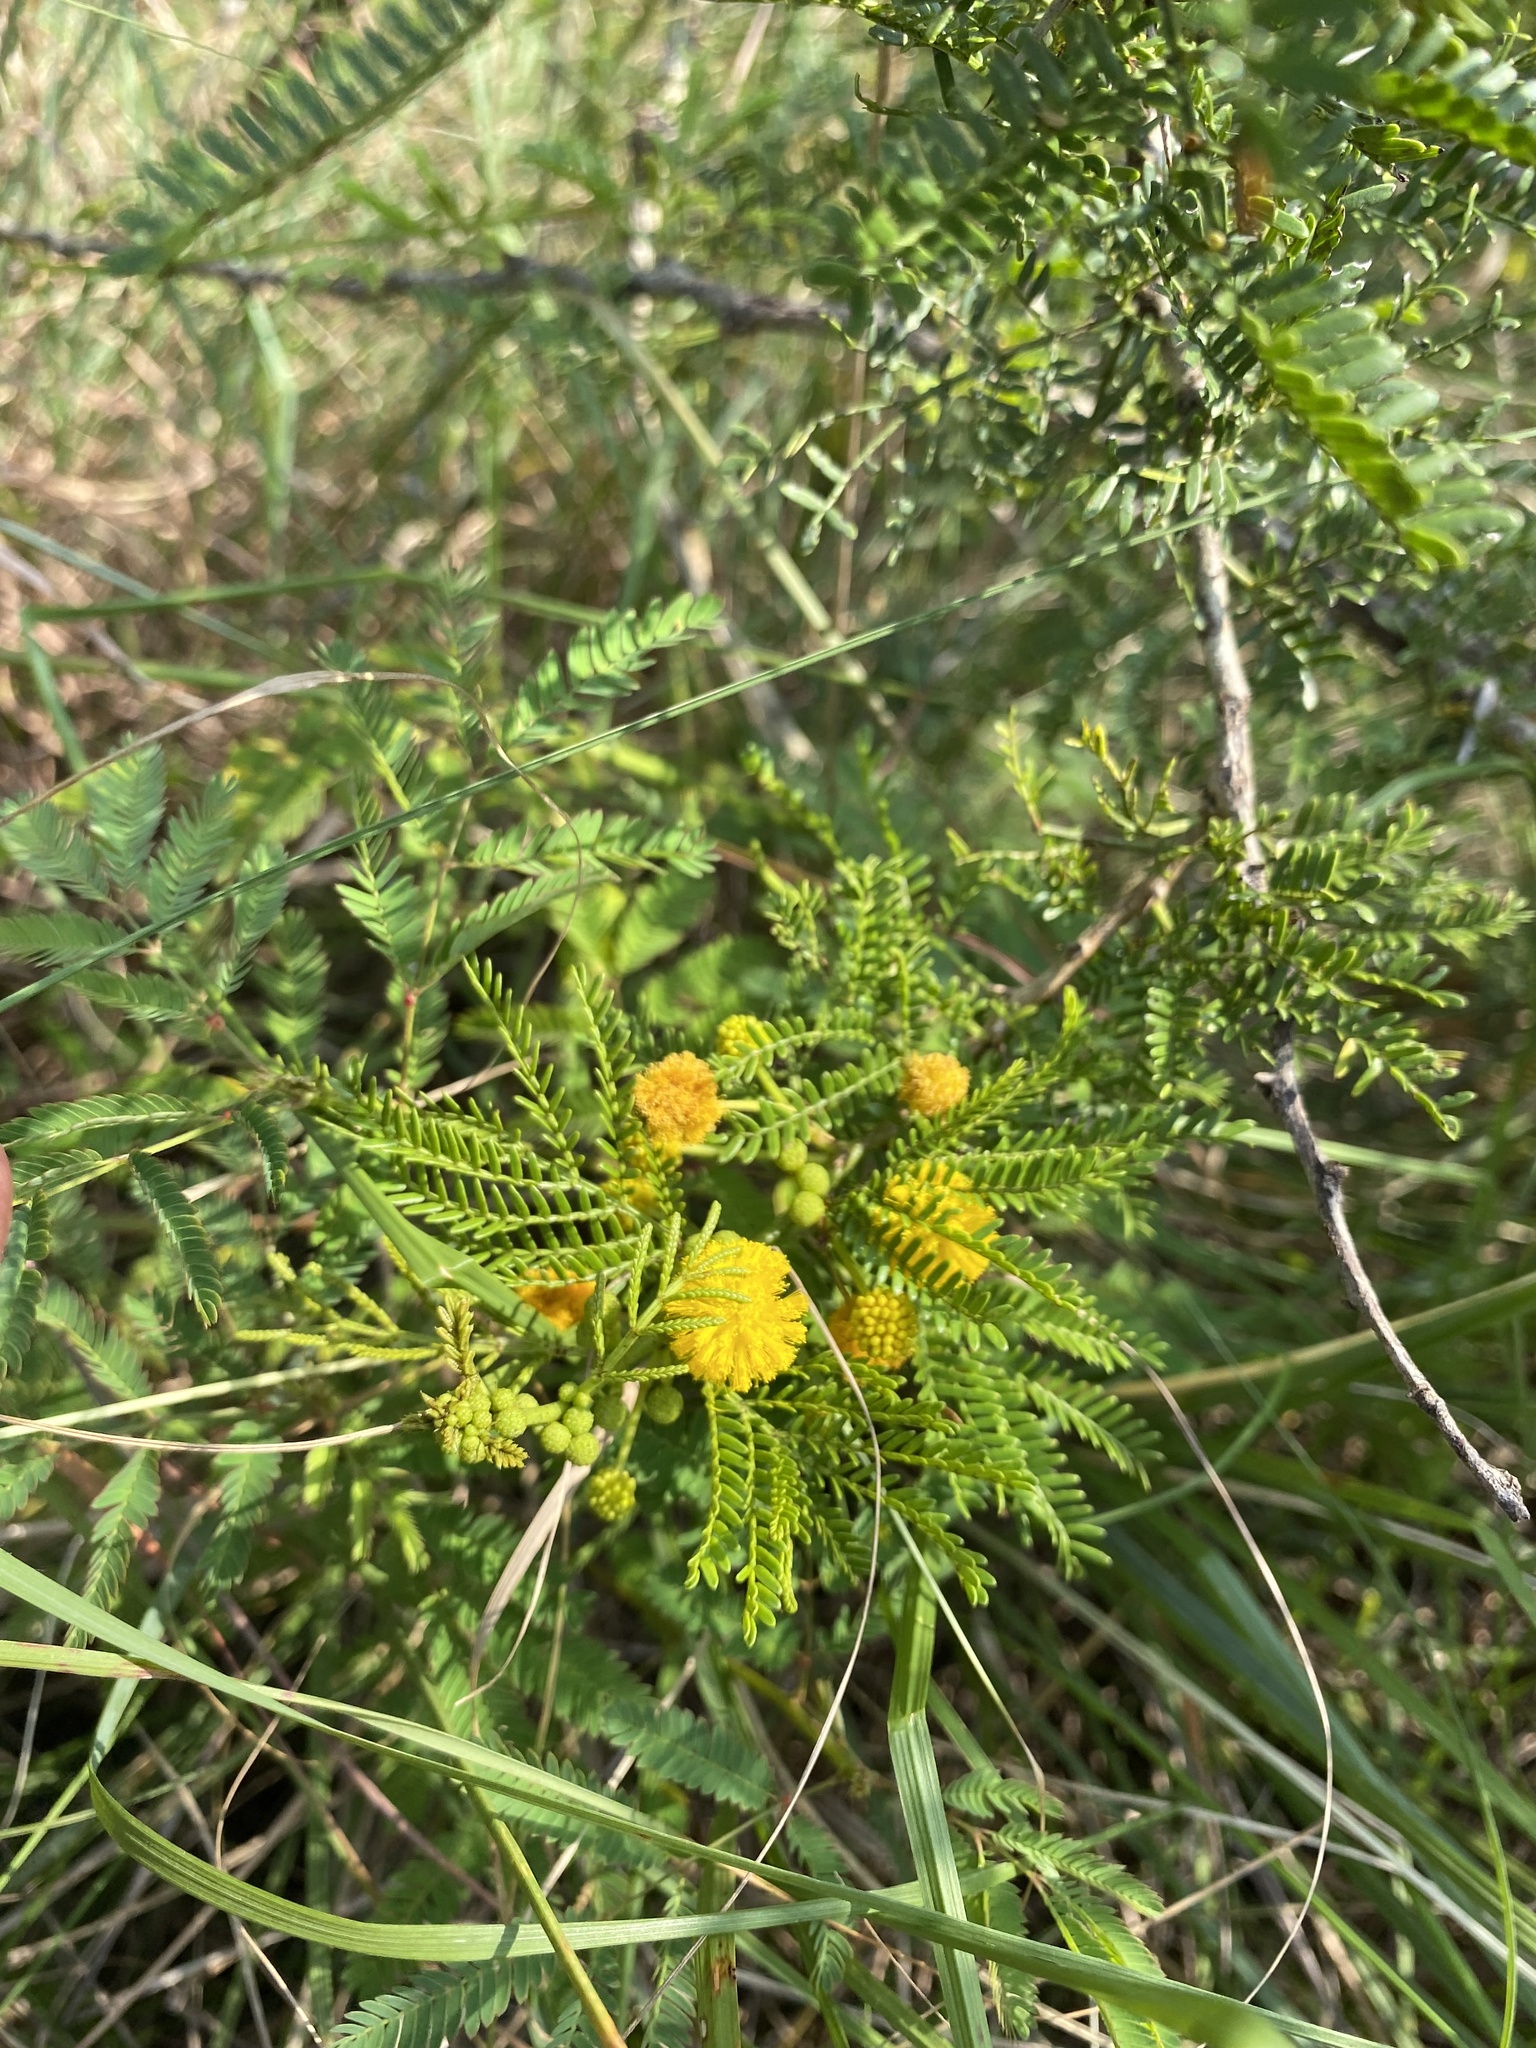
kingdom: Plantae
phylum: Tracheophyta
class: Magnoliopsida
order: Fabales
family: Fabaceae
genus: Vachellia
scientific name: Vachellia karroo
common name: Sweet thorn
